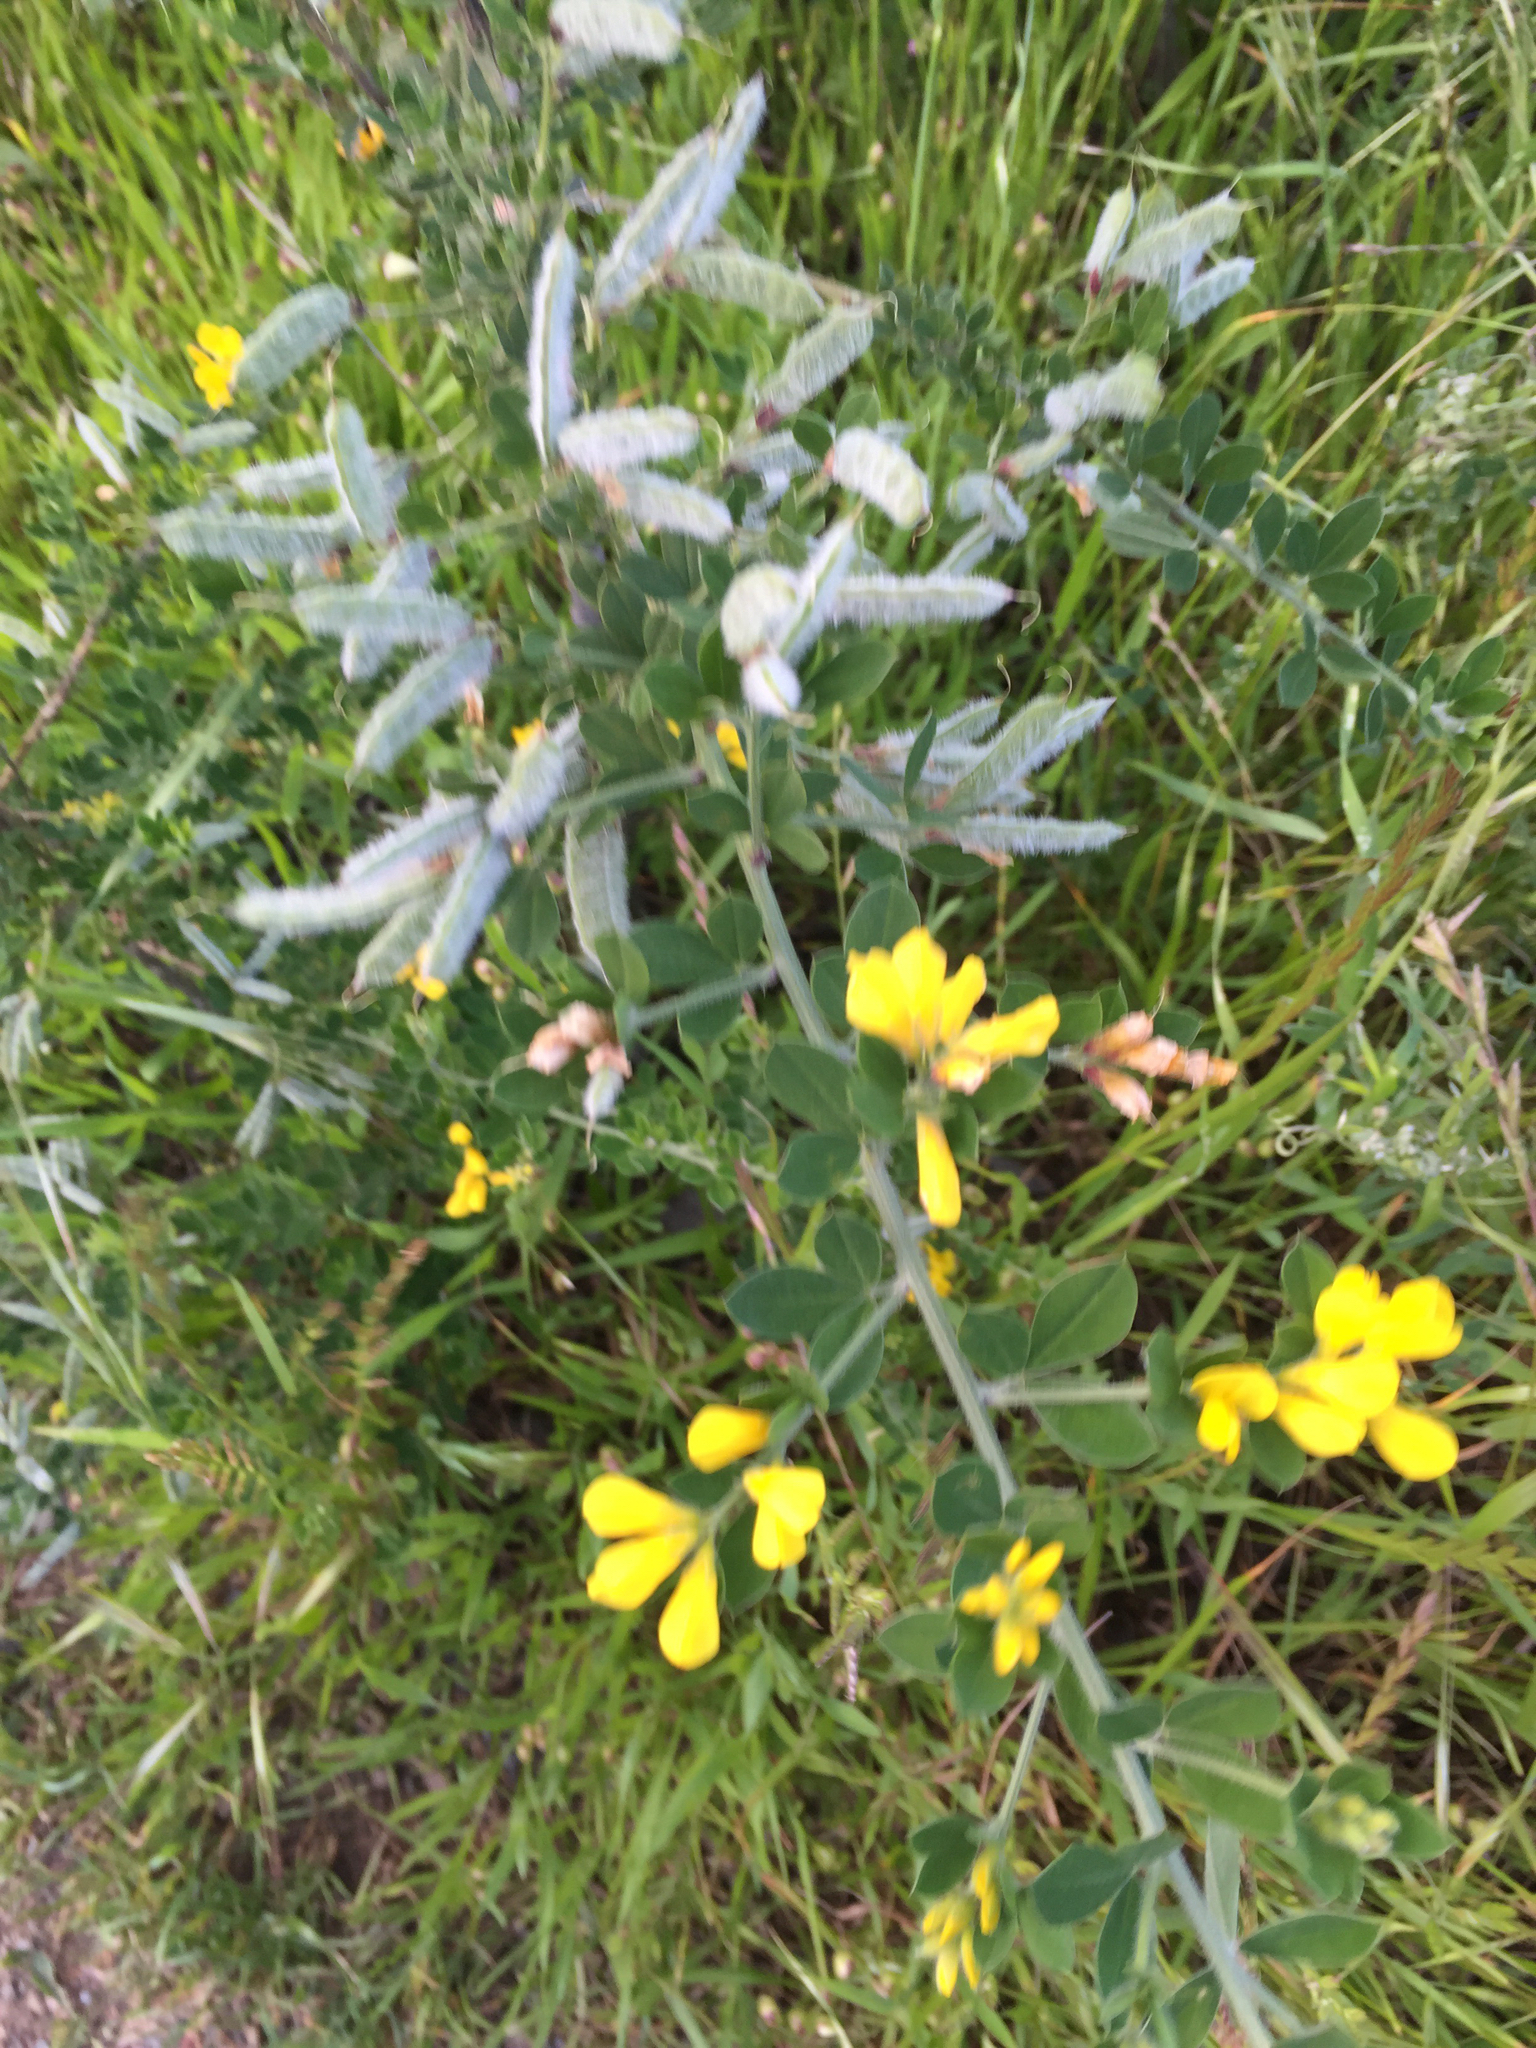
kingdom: Plantae
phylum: Tracheophyta
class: Magnoliopsida
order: Fabales
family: Fabaceae
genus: Genista
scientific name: Genista monspessulana
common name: Montpellier broom
